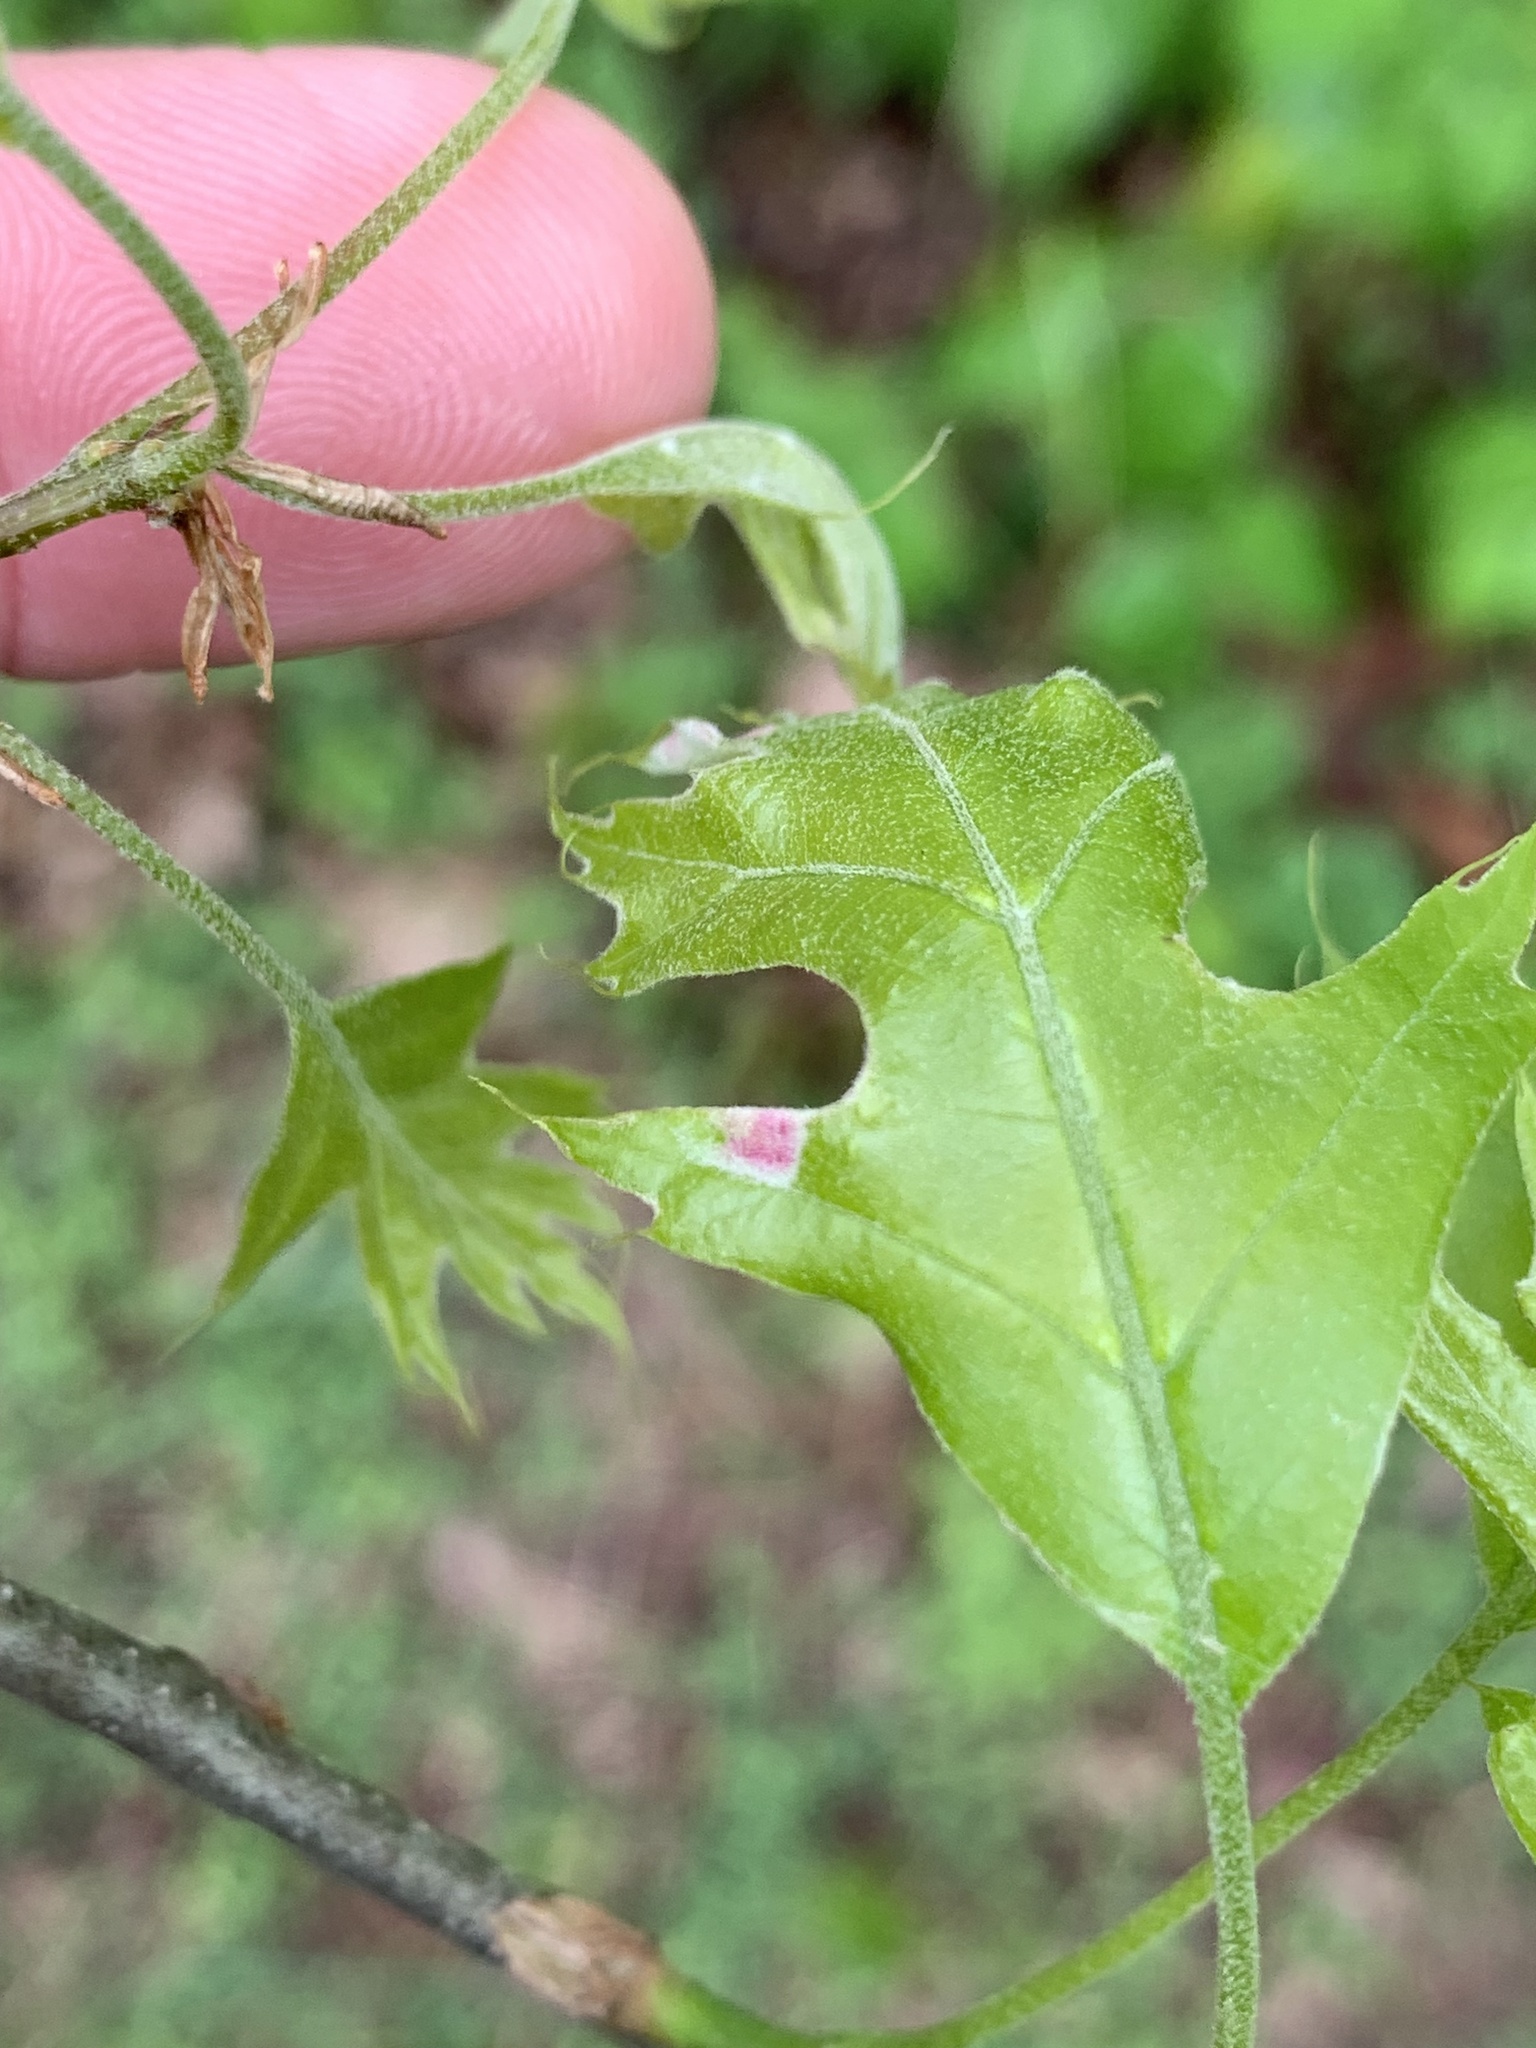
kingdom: Animalia
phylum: Arthropoda
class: Arachnida
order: Trombidiformes
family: Eriophyidae
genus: Aceria
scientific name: Aceria
